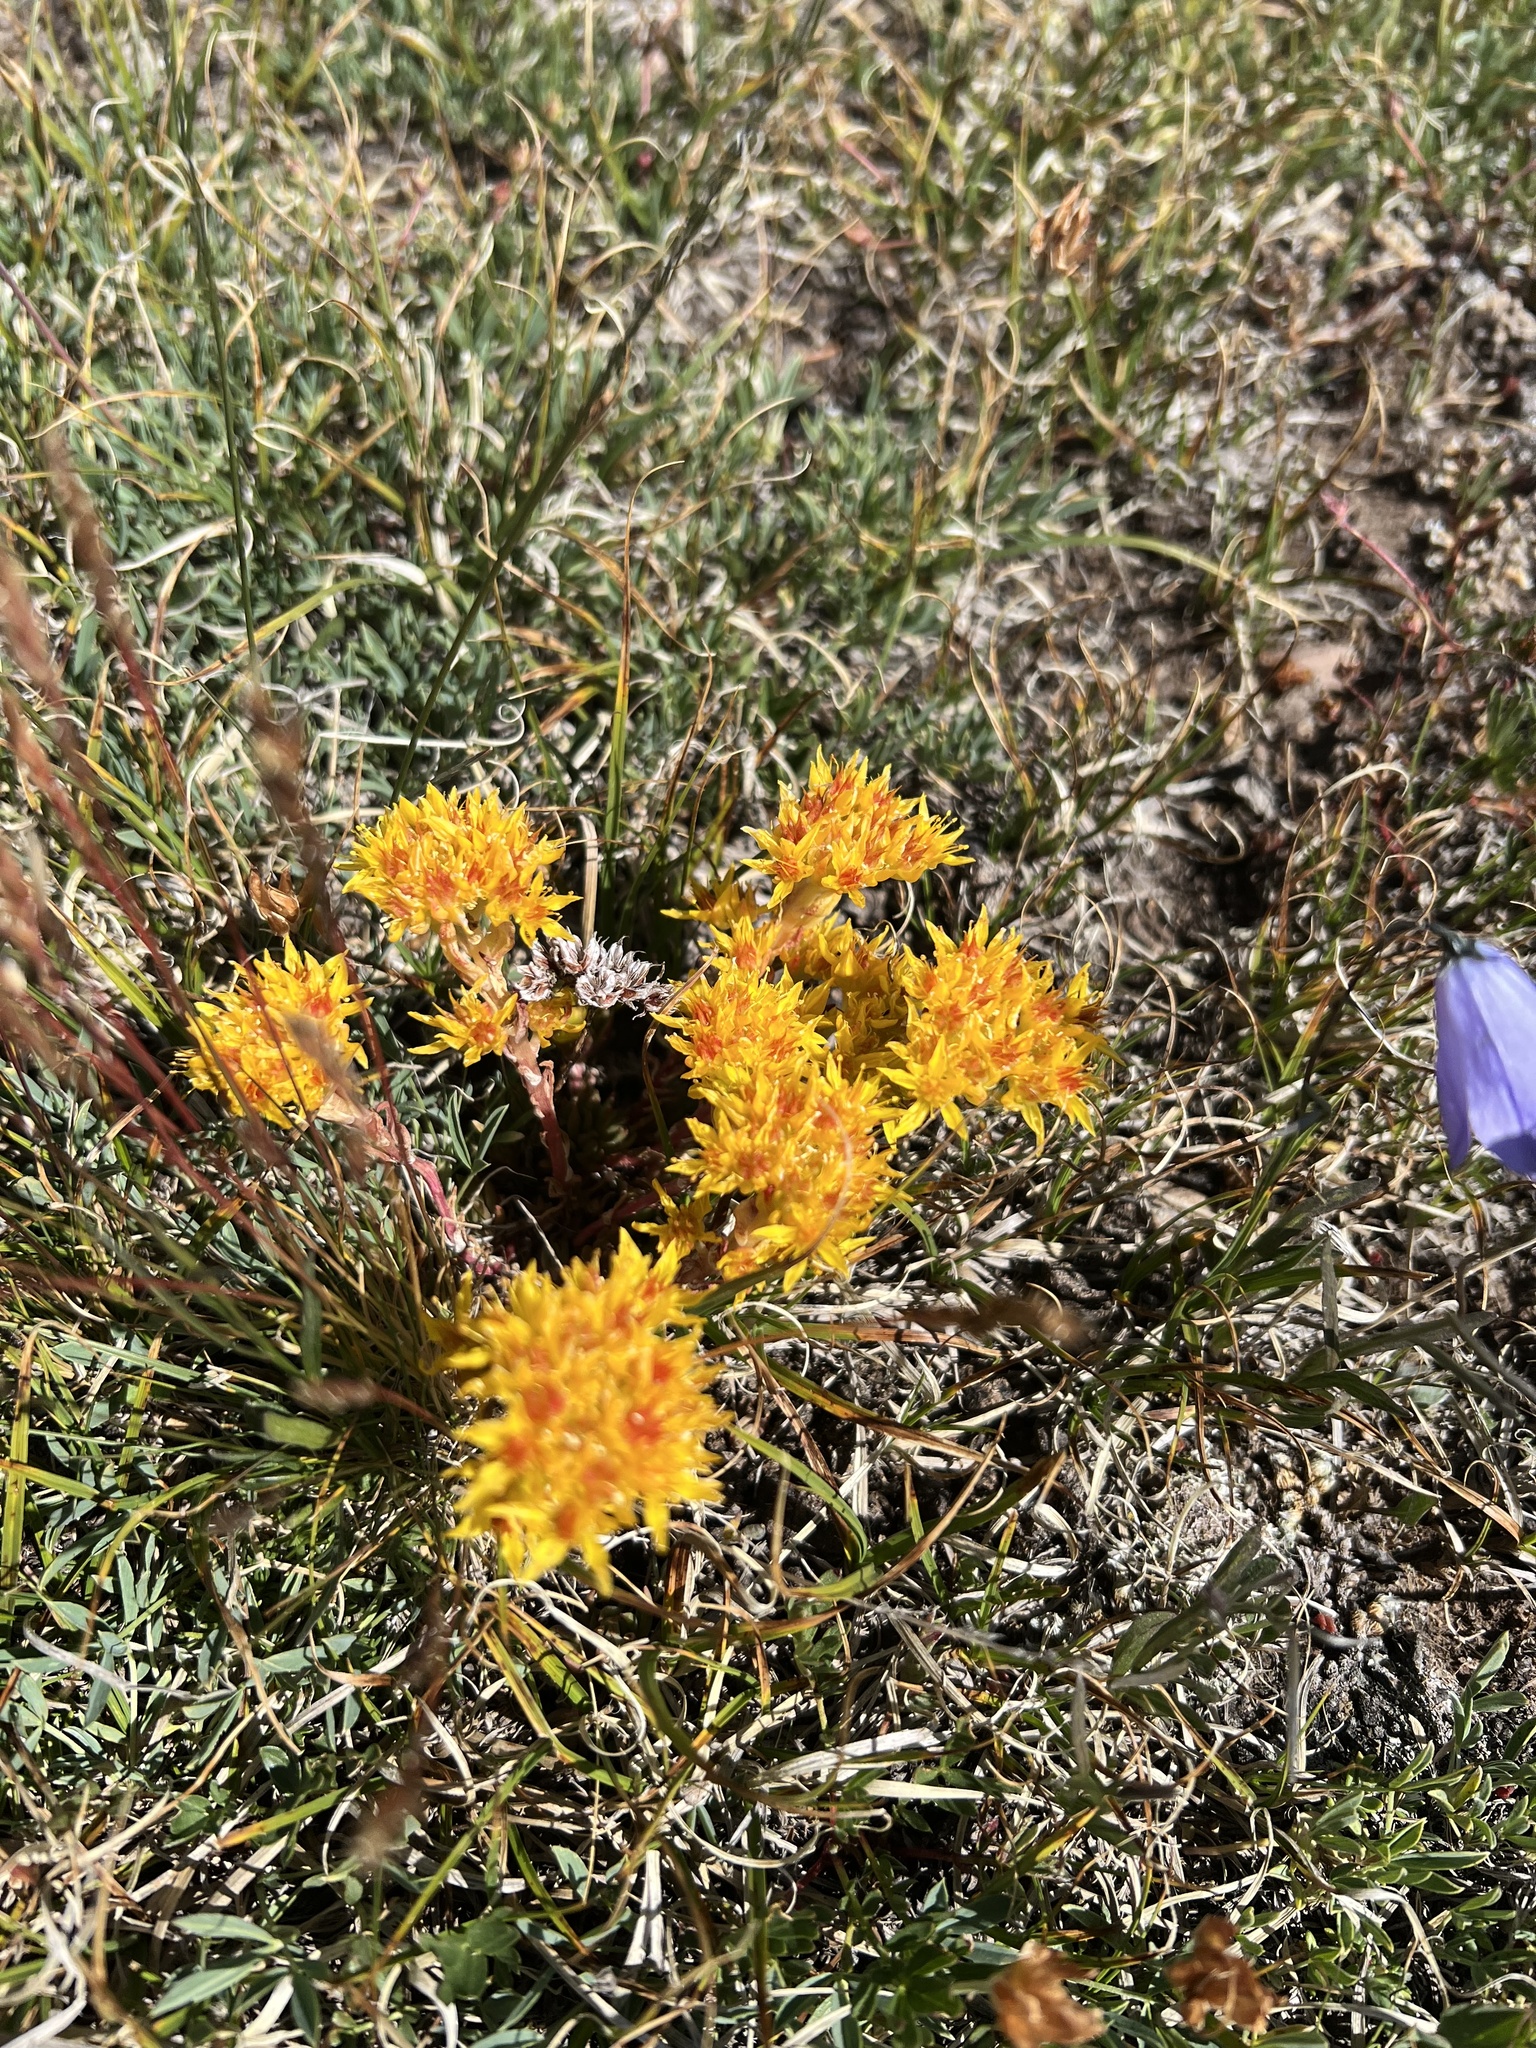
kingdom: Plantae
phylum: Tracheophyta
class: Magnoliopsida
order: Saxifragales
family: Crassulaceae
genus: Sedum
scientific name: Sedum lanceolatum
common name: Common stonecrop
